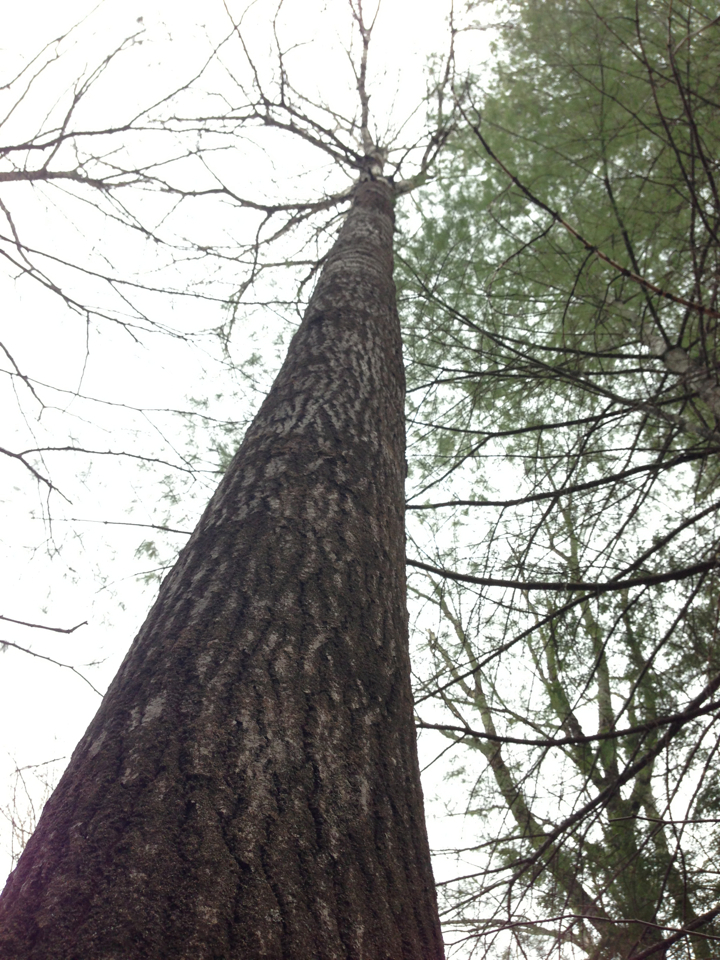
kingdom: Plantae
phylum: Tracheophyta
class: Magnoliopsida
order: Malpighiales
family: Salicaceae
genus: Populus
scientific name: Populus grandidentata
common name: Bigtooth aspen
